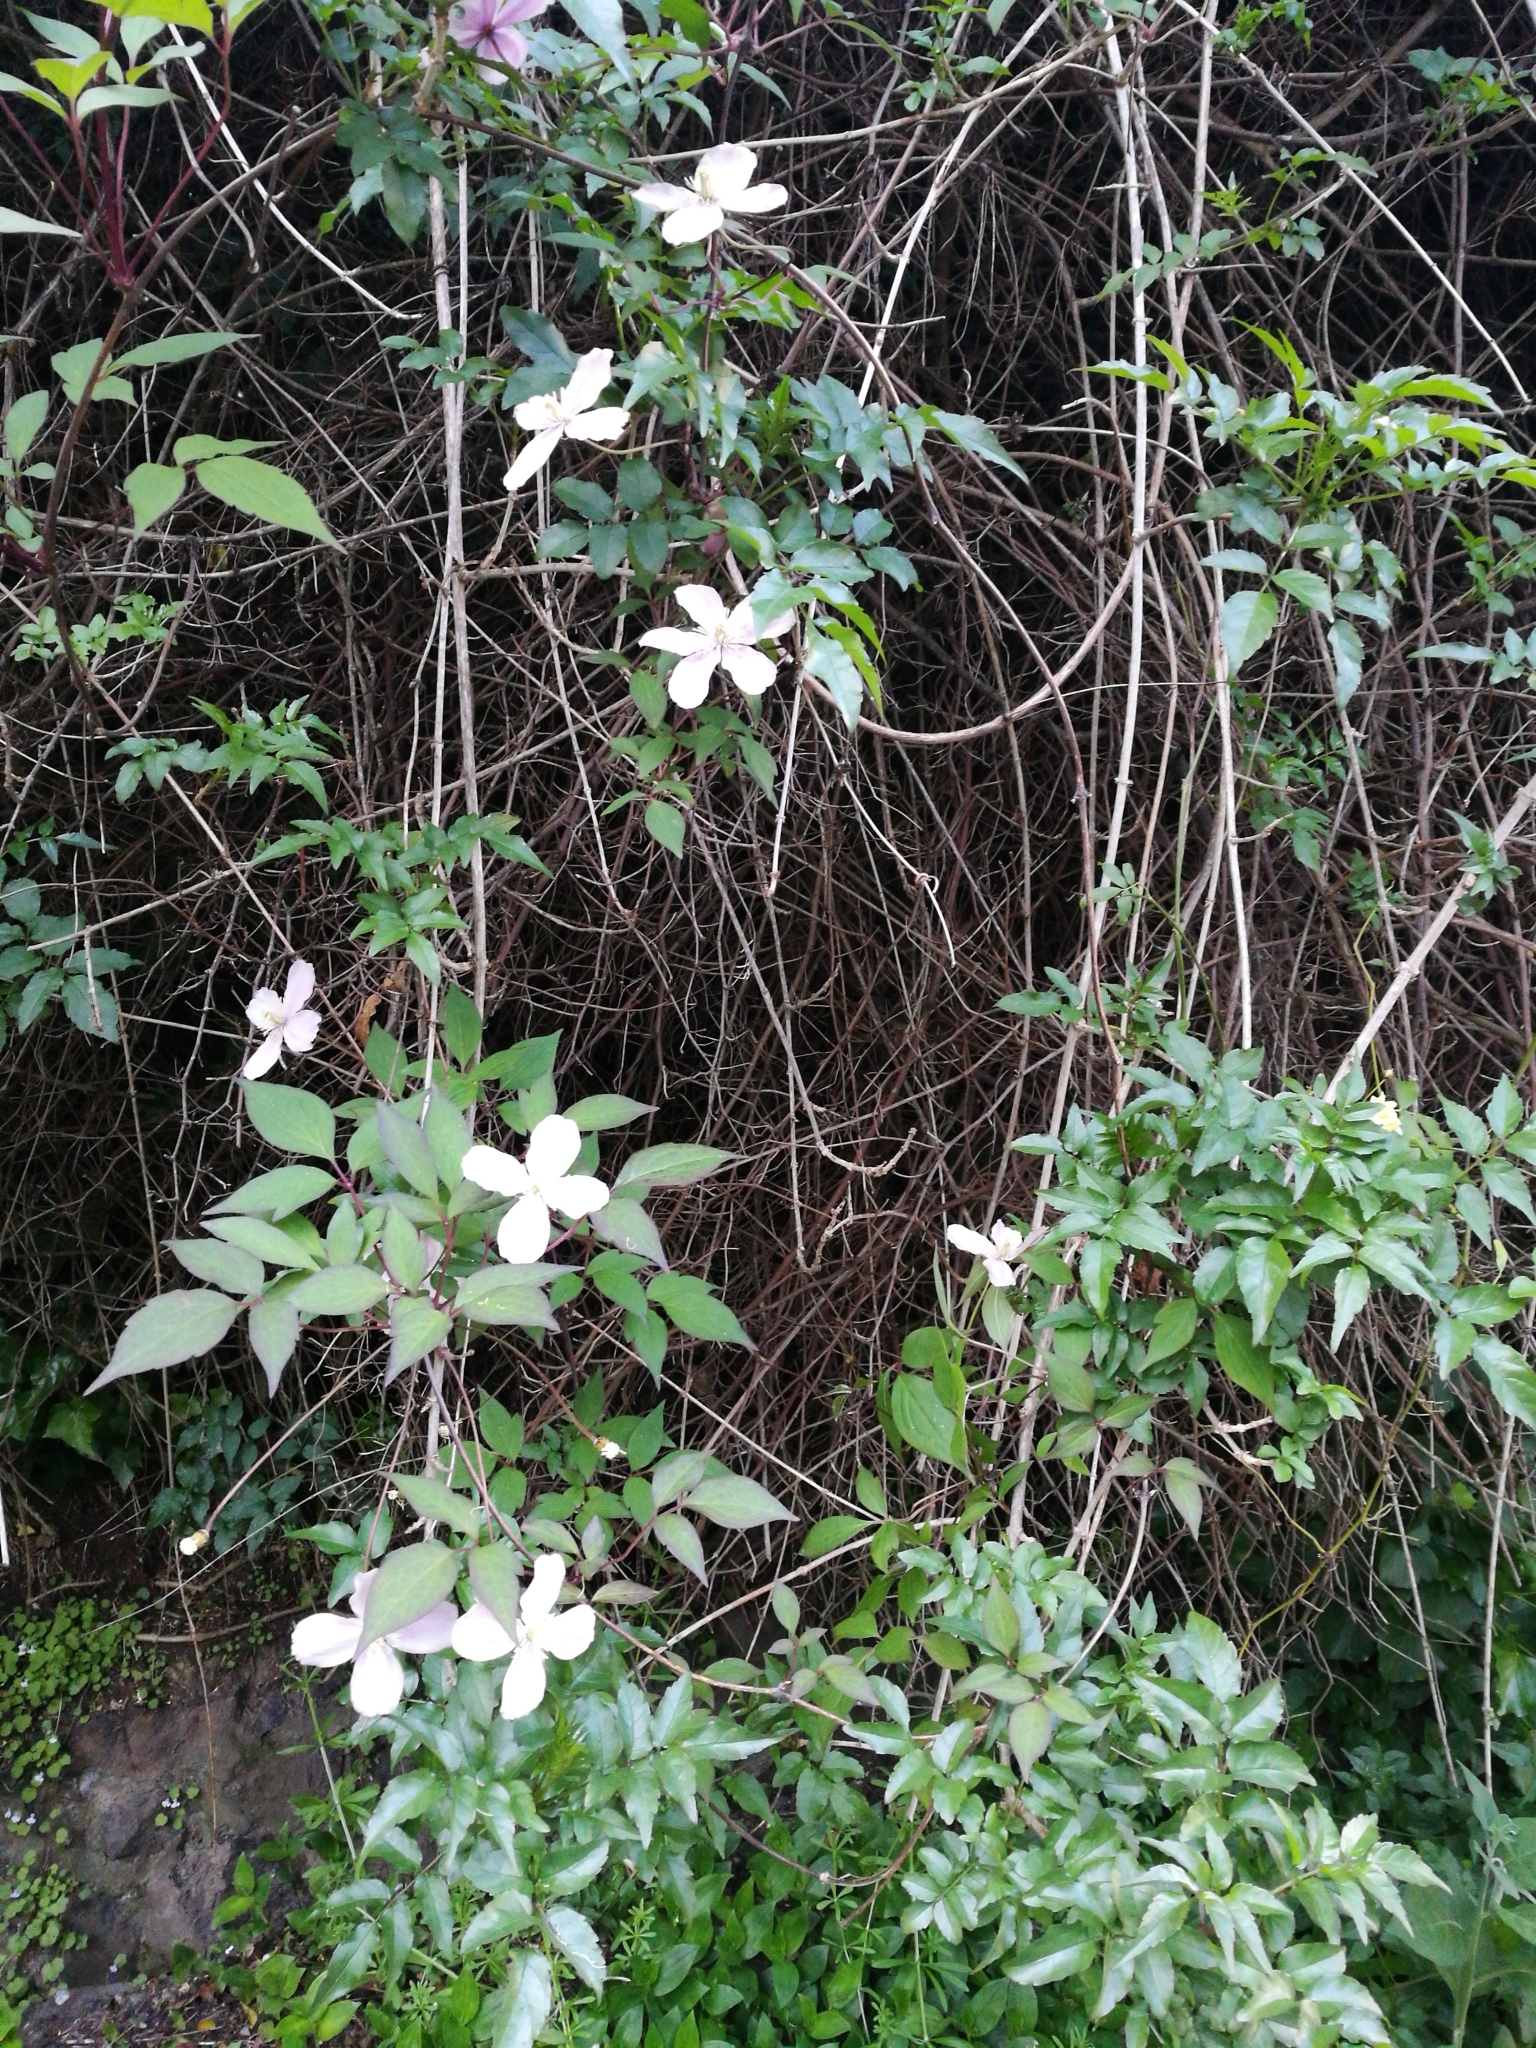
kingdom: Plantae
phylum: Tracheophyta
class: Magnoliopsida
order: Ranunculales
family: Ranunculaceae
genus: Clematis
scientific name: Clematis montana
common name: Himalayan clematis
